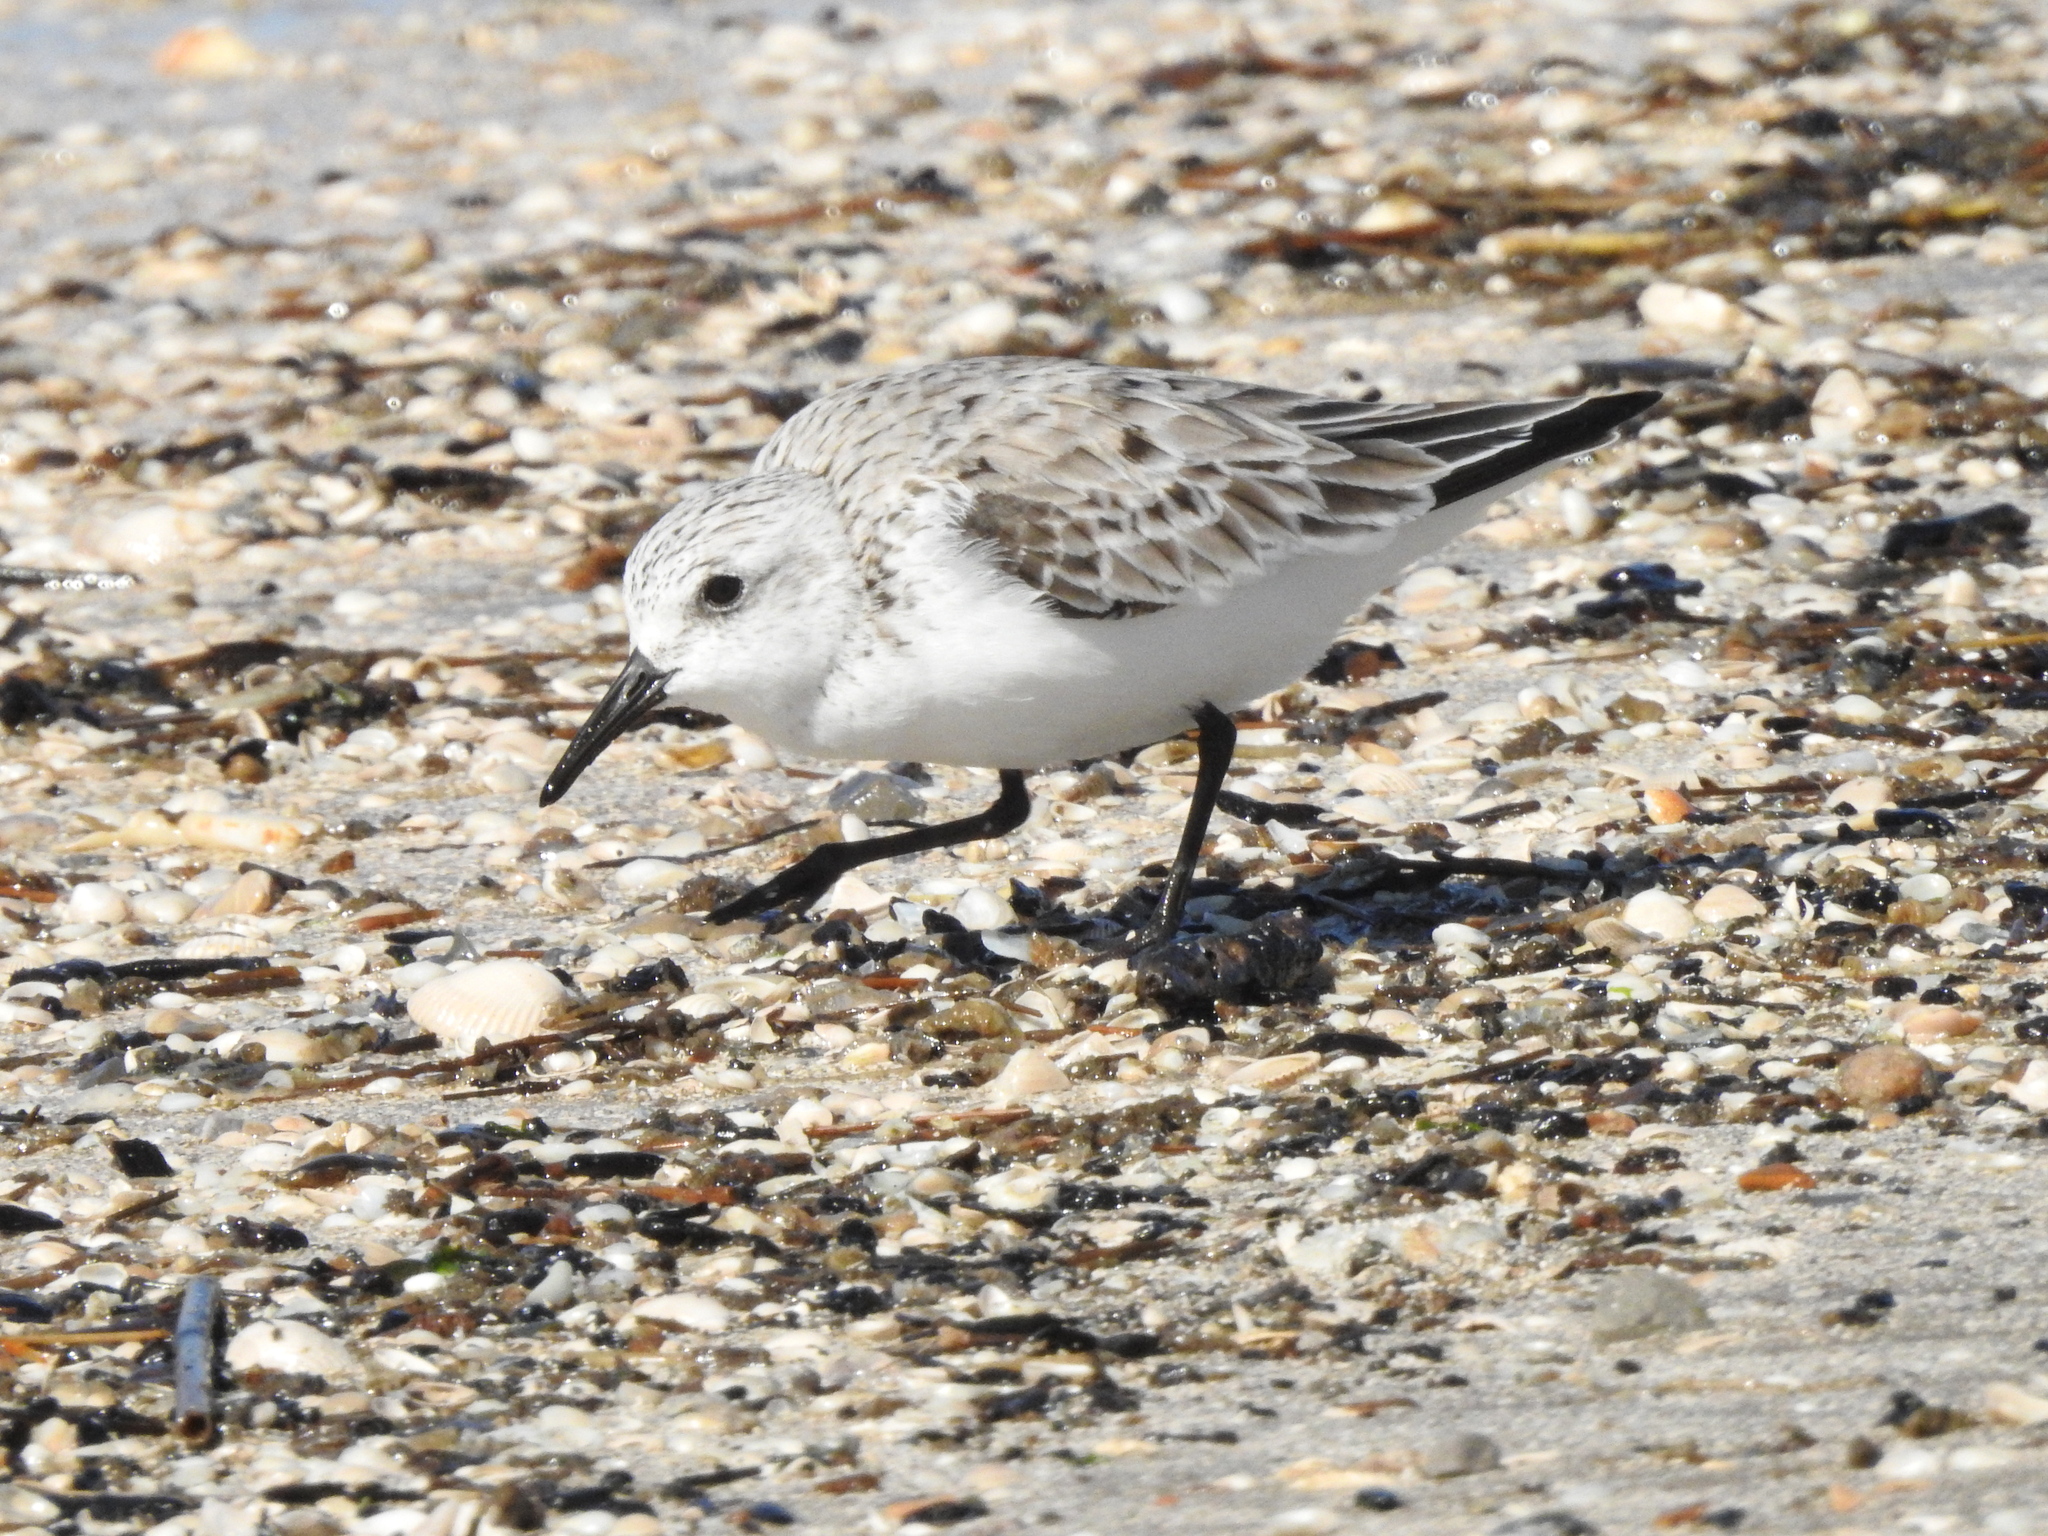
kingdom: Animalia
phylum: Chordata
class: Aves
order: Charadriiformes
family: Scolopacidae
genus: Calidris
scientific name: Calidris alba
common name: Sanderling
